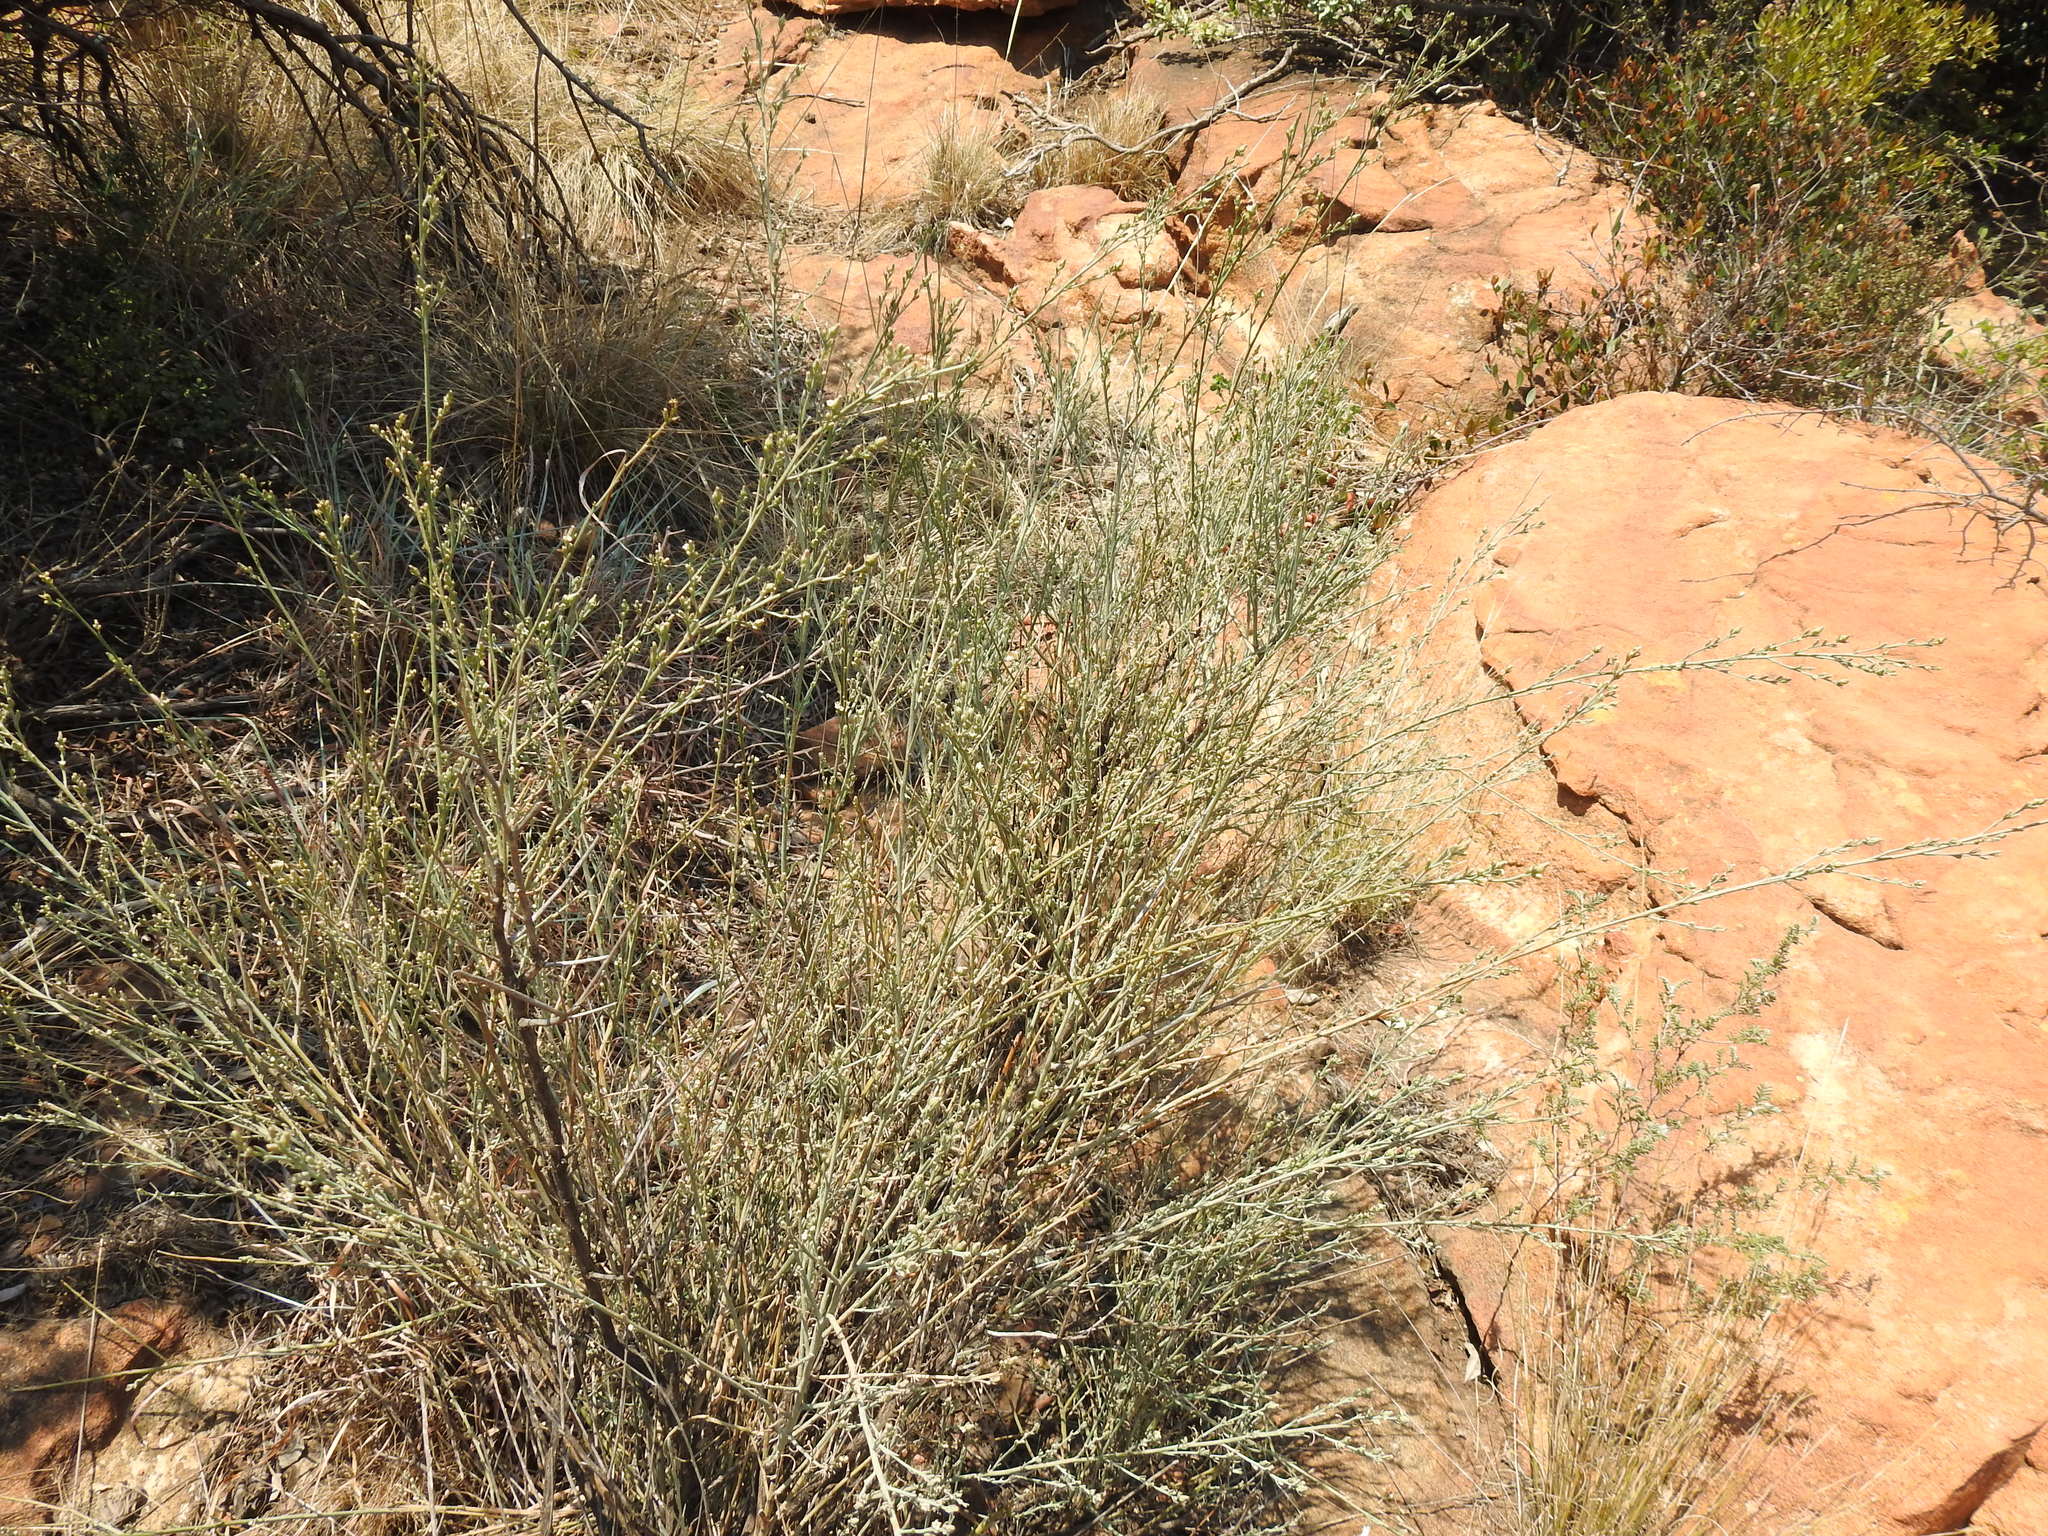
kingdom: Plantae
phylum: Tracheophyta
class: Magnoliopsida
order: Santalales
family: Thesiaceae
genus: Thesium
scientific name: Thesium procerum
